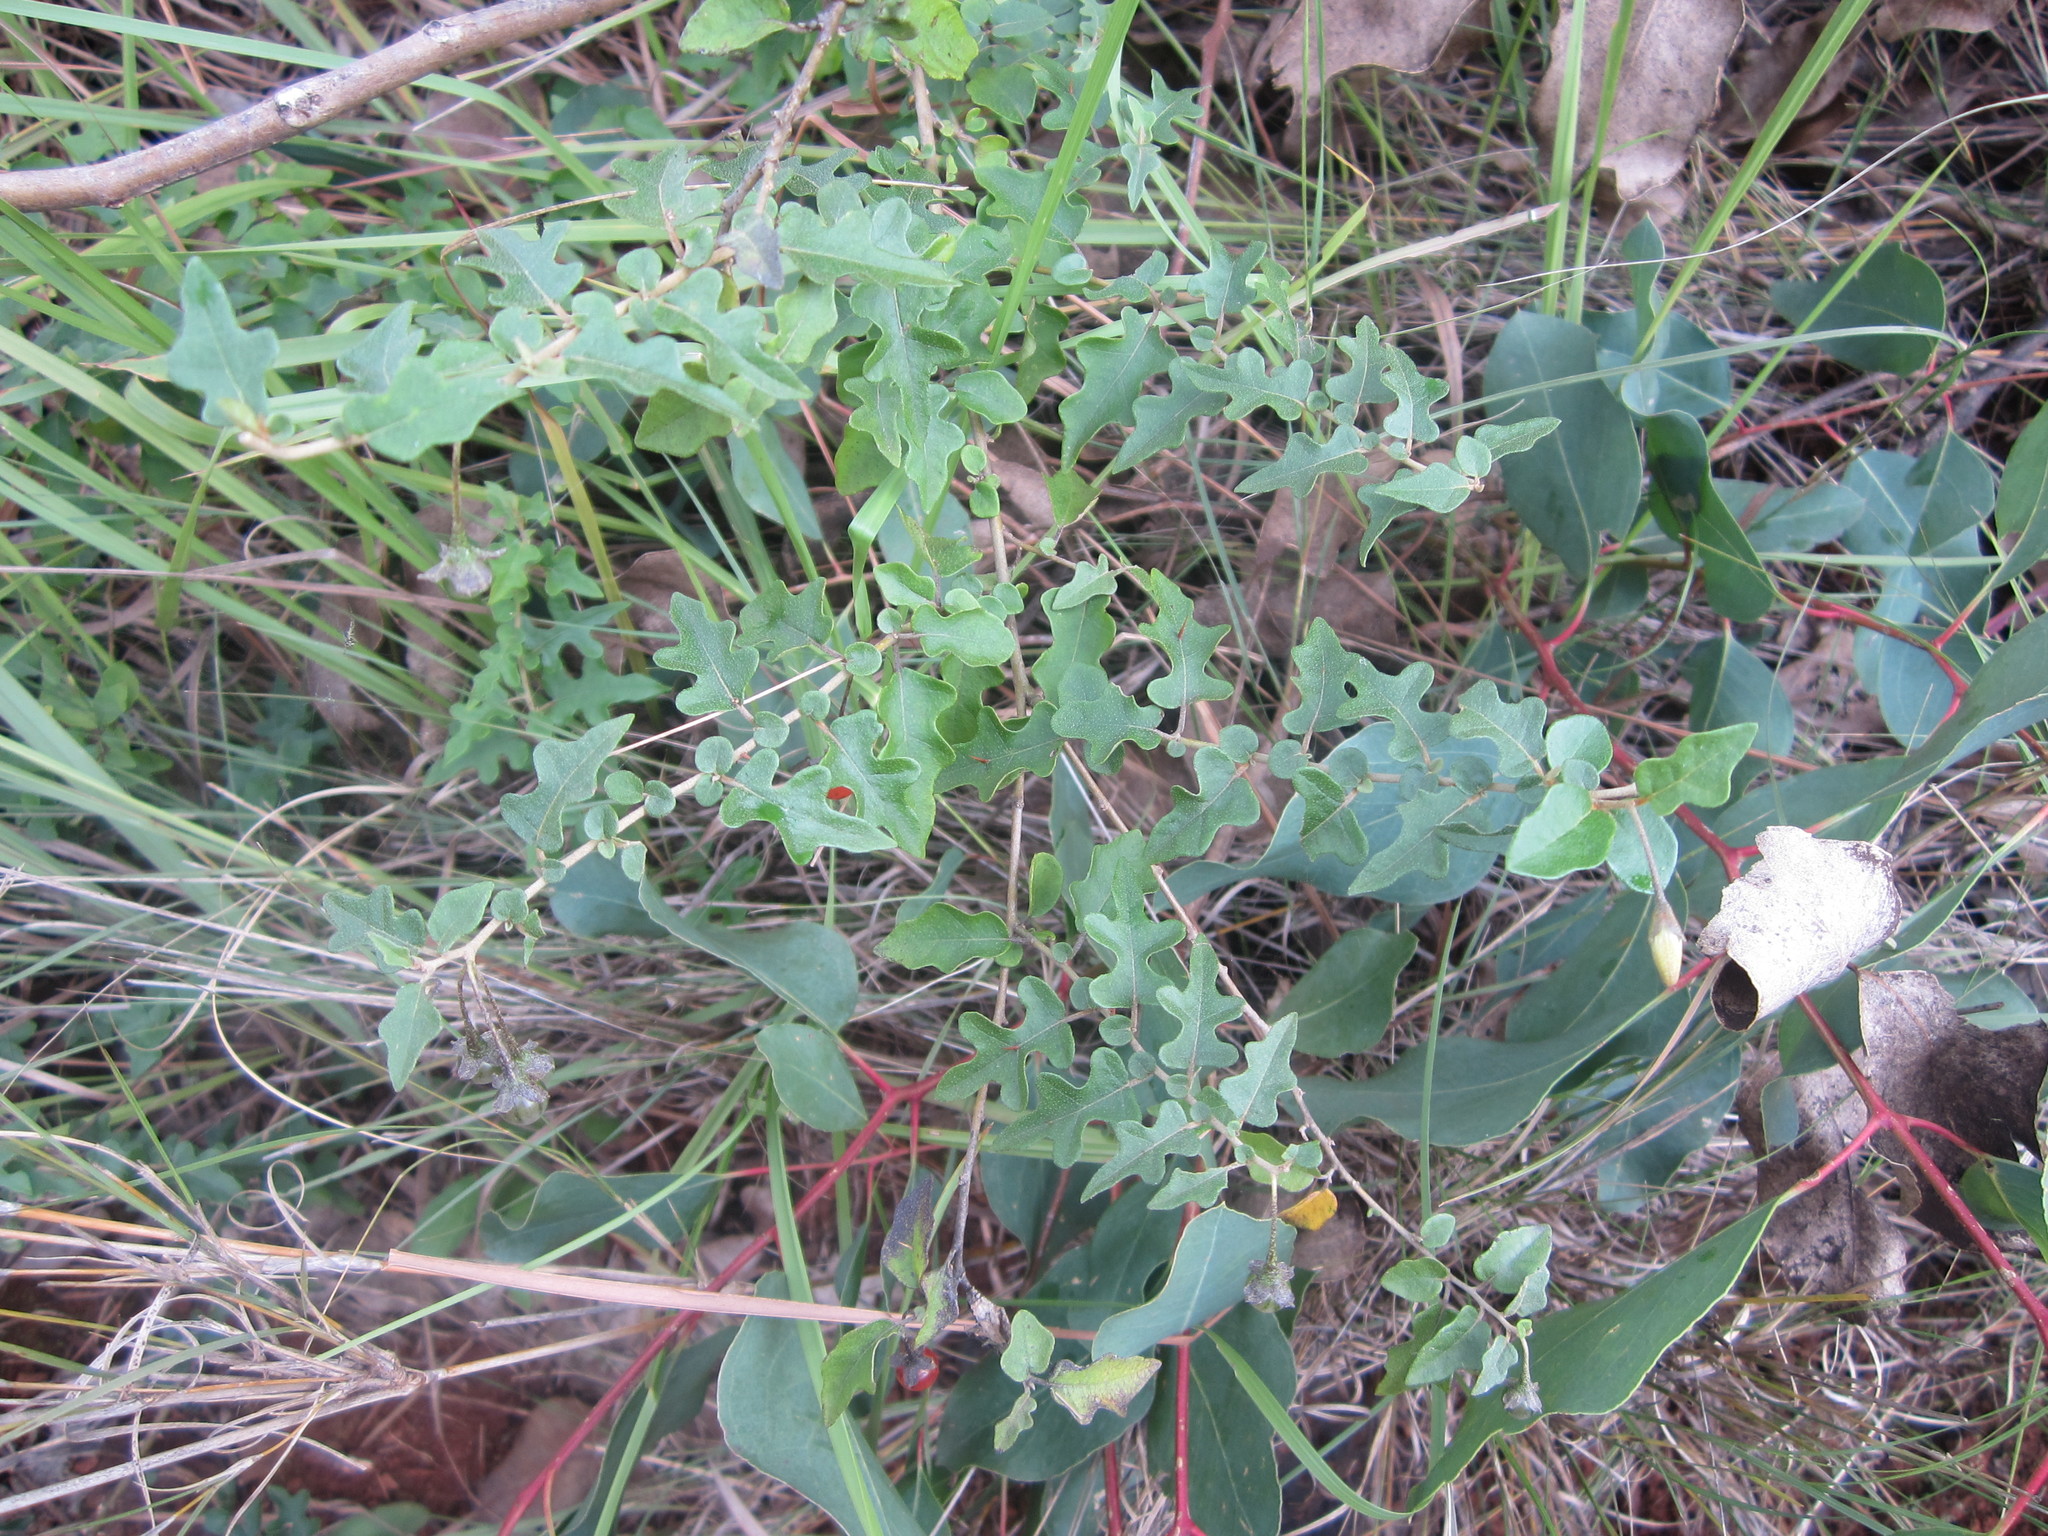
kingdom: Plantae
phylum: Tracheophyta
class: Magnoliopsida
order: Solanales
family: Solanaceae
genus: Solanum
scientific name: Solanum erythracanthum
